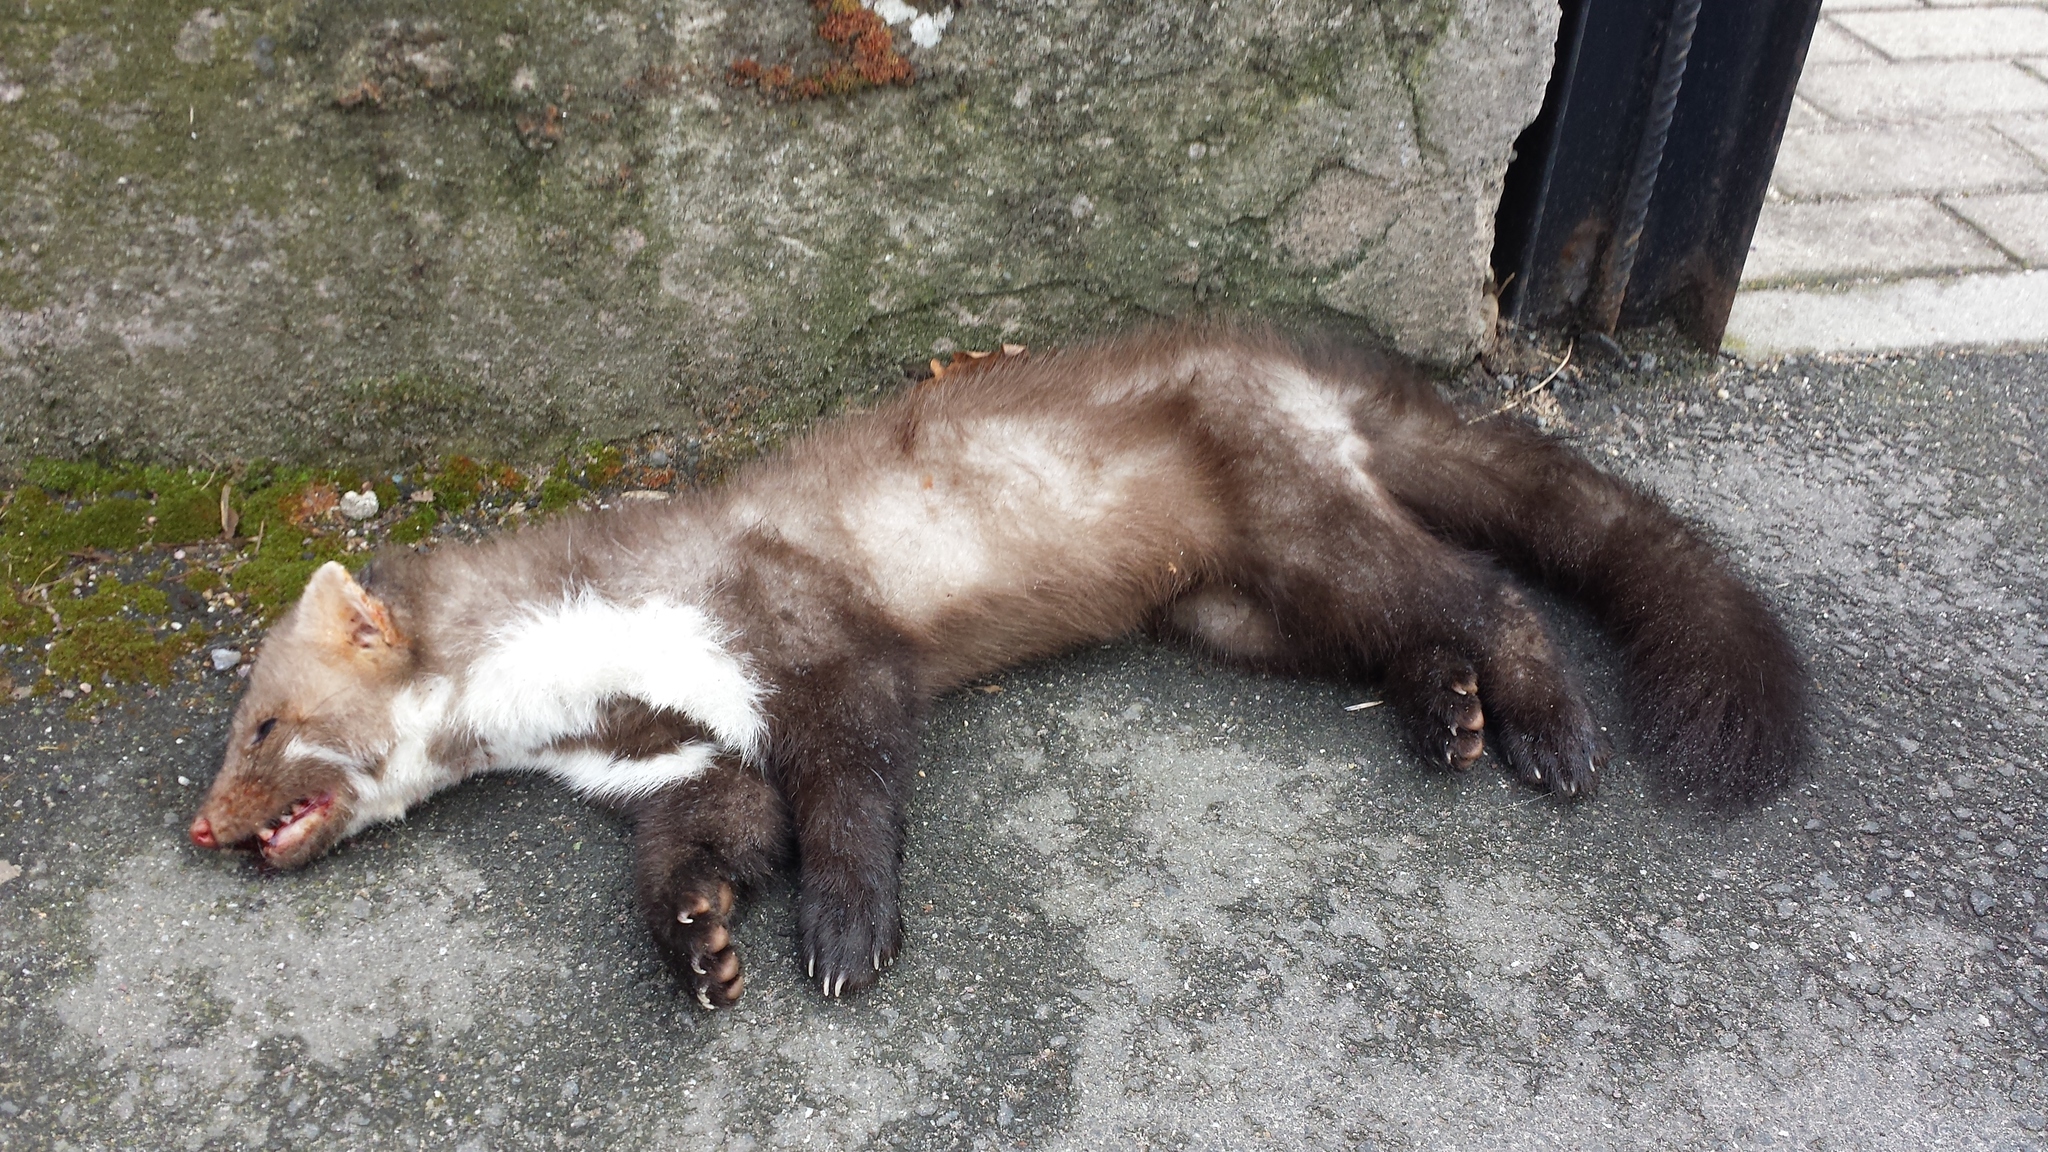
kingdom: Animalia
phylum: Chordata
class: Mammalia
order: Carnivora
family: Mustelidae
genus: Martes
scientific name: Martes foina
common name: Beech marten
